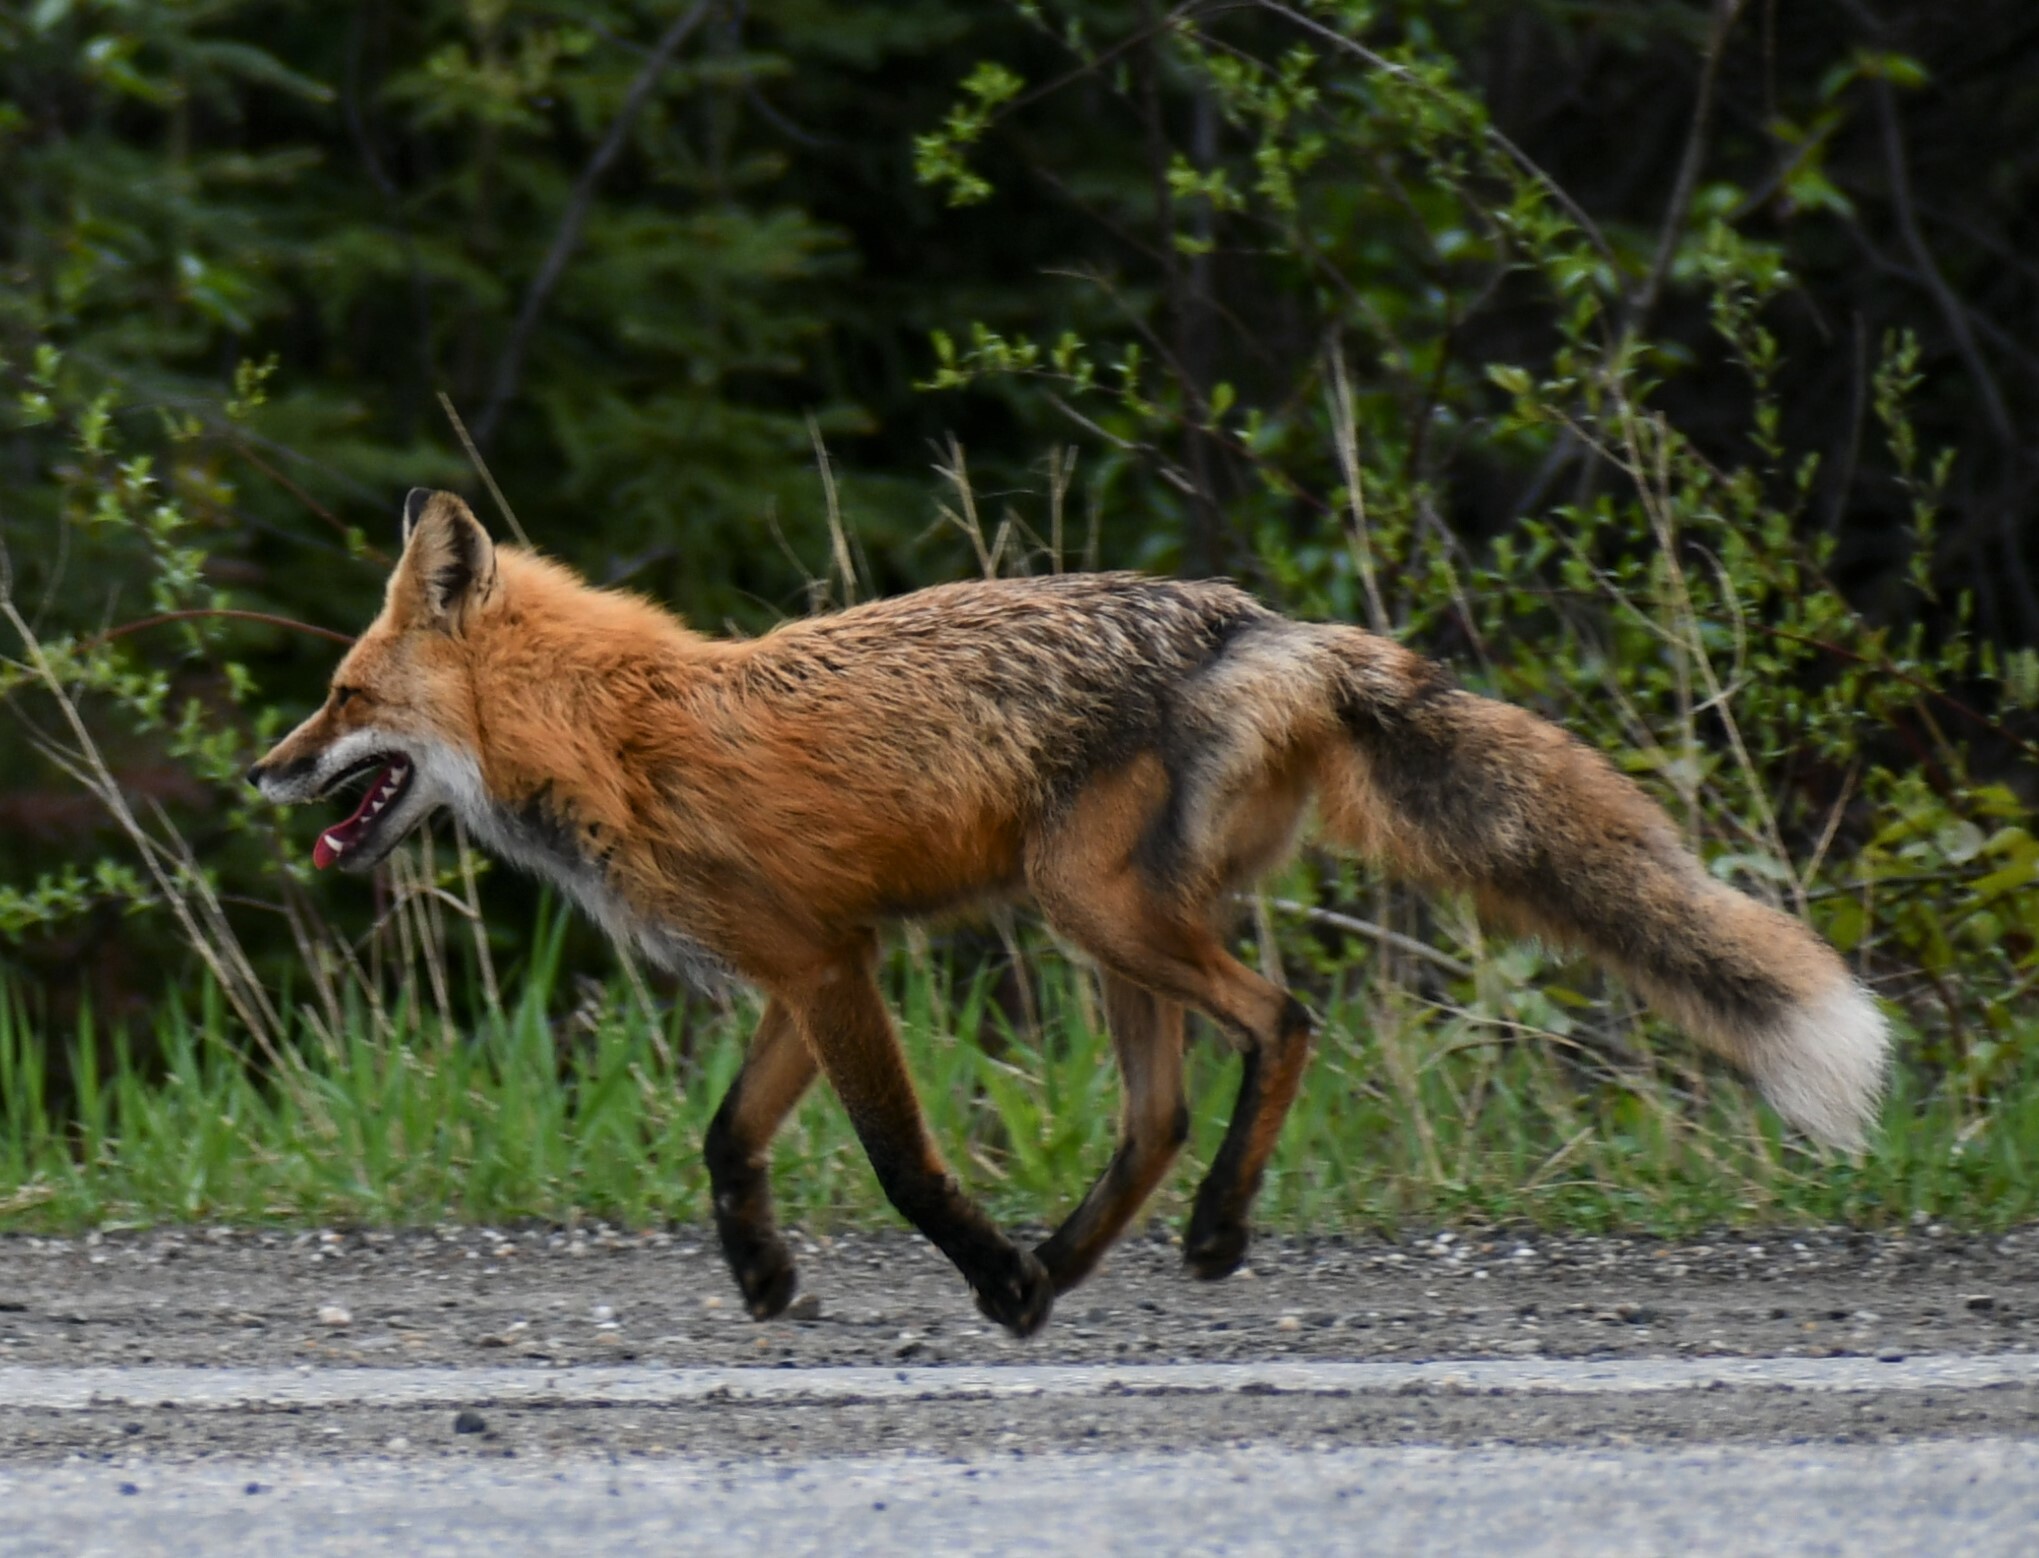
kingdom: Animalia
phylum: Chordata
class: Mammalia
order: Carnivora
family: Canidae
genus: Vulpes
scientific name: Vulpes vulpes
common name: Red fox
